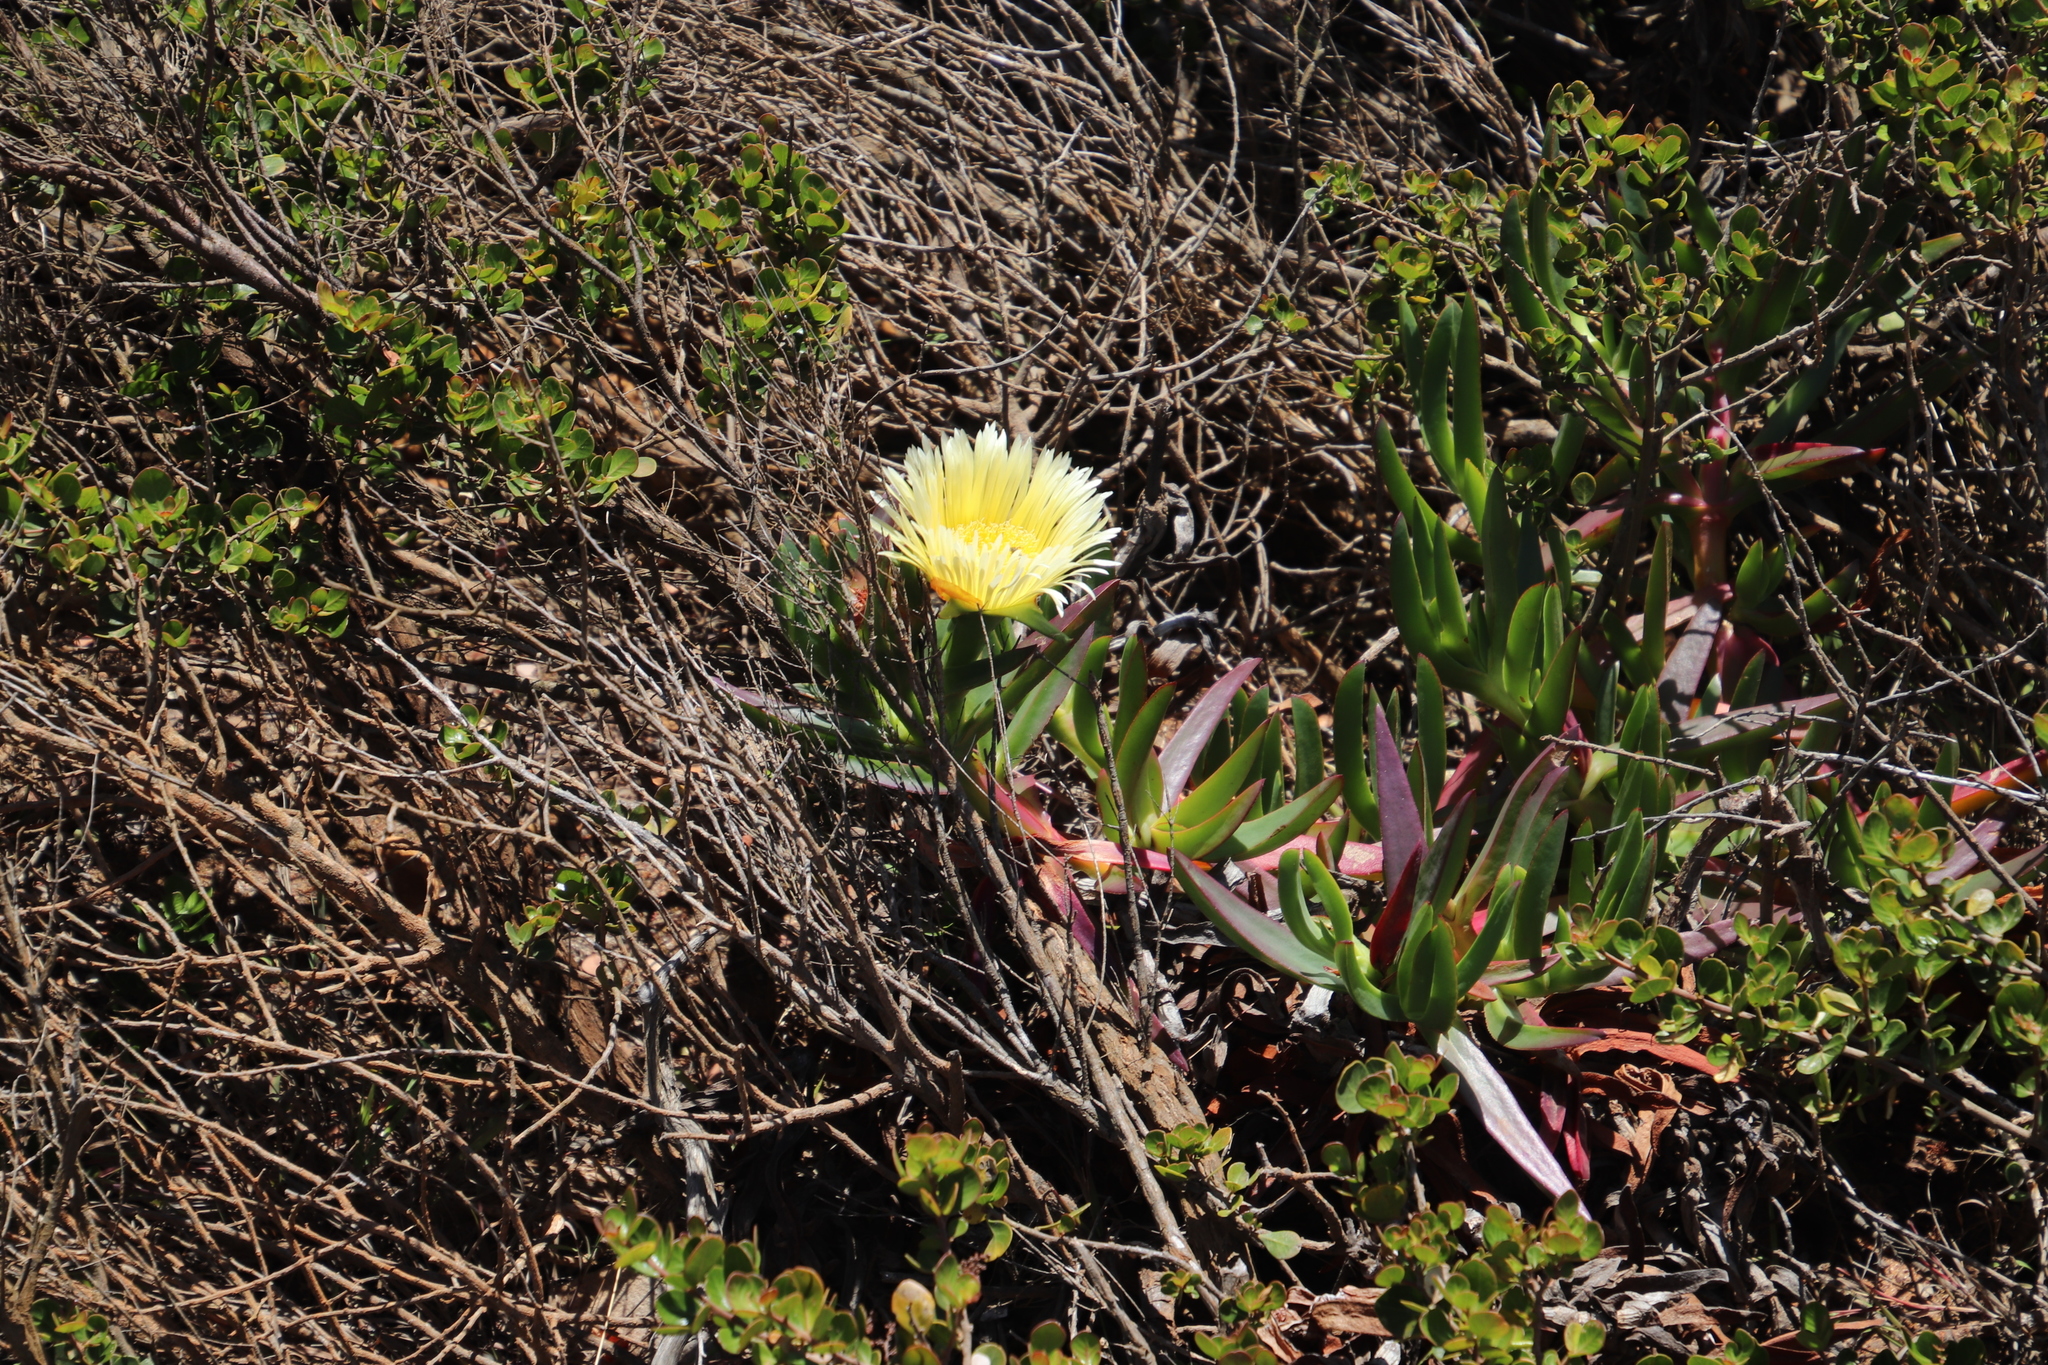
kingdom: Plantae
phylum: Tracheophyta
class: Magnoliopsida
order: Caryophyllales
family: Aizoaceae
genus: Carpobrotus
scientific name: Carpobrotus edulis
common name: Hottentot-fig
